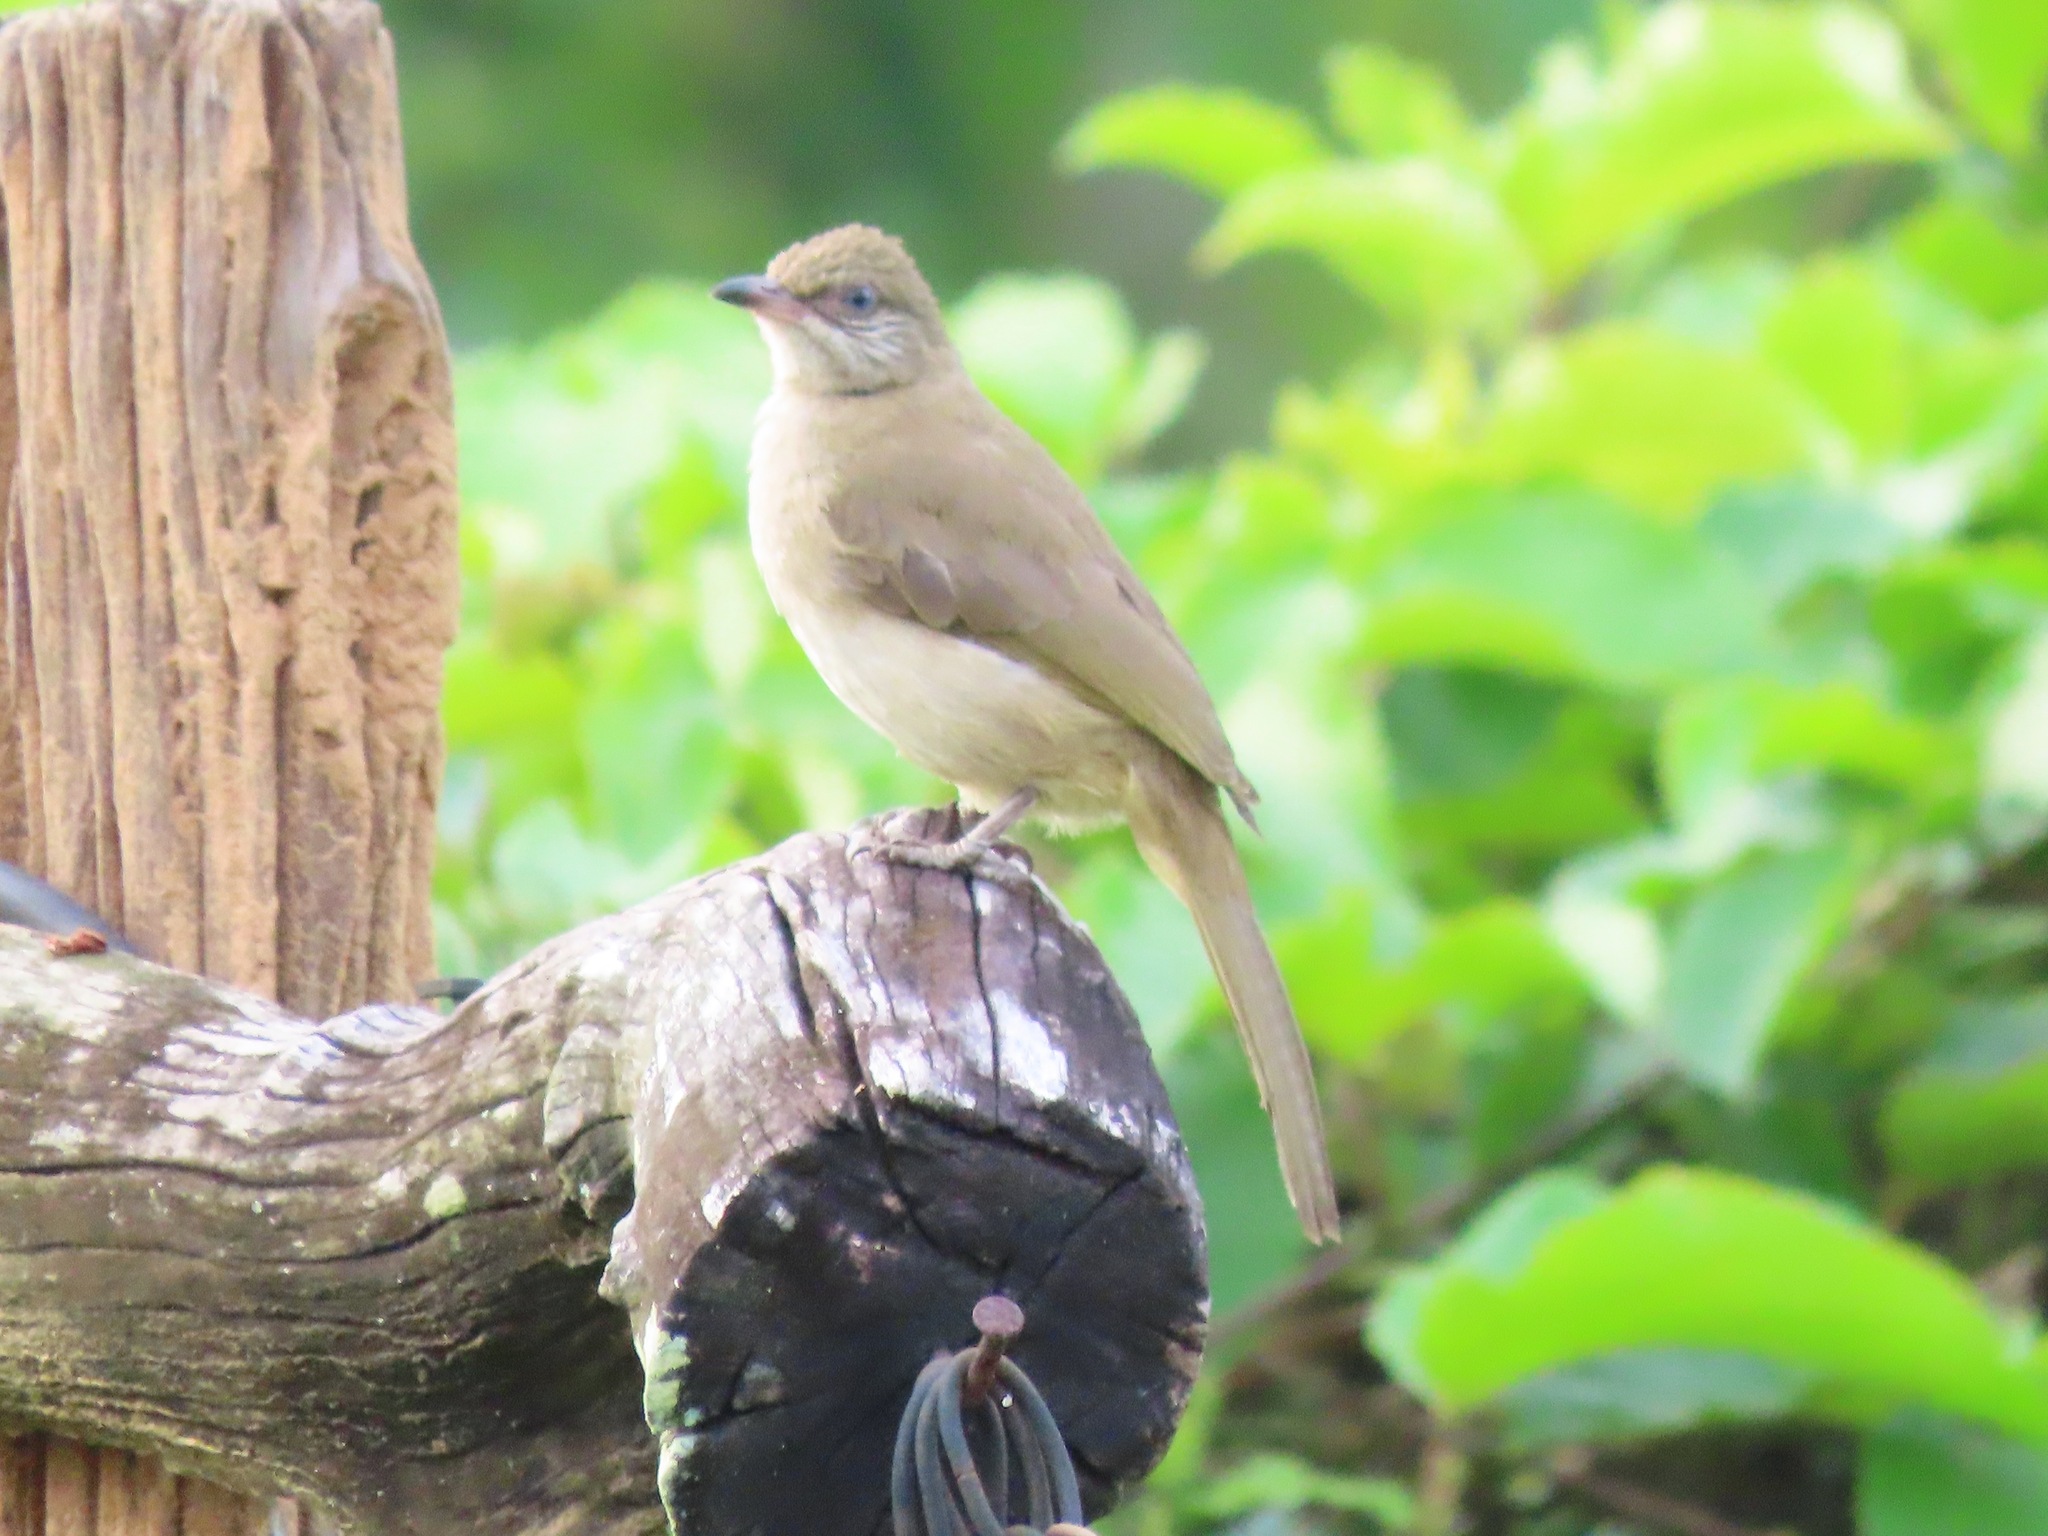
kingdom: Animalia
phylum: Chordata
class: Aves
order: Passeriformes
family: Pycnonotidae
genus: Pycnonotus
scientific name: Pycnonotus blanfordi
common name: Streak-eared bulbul
